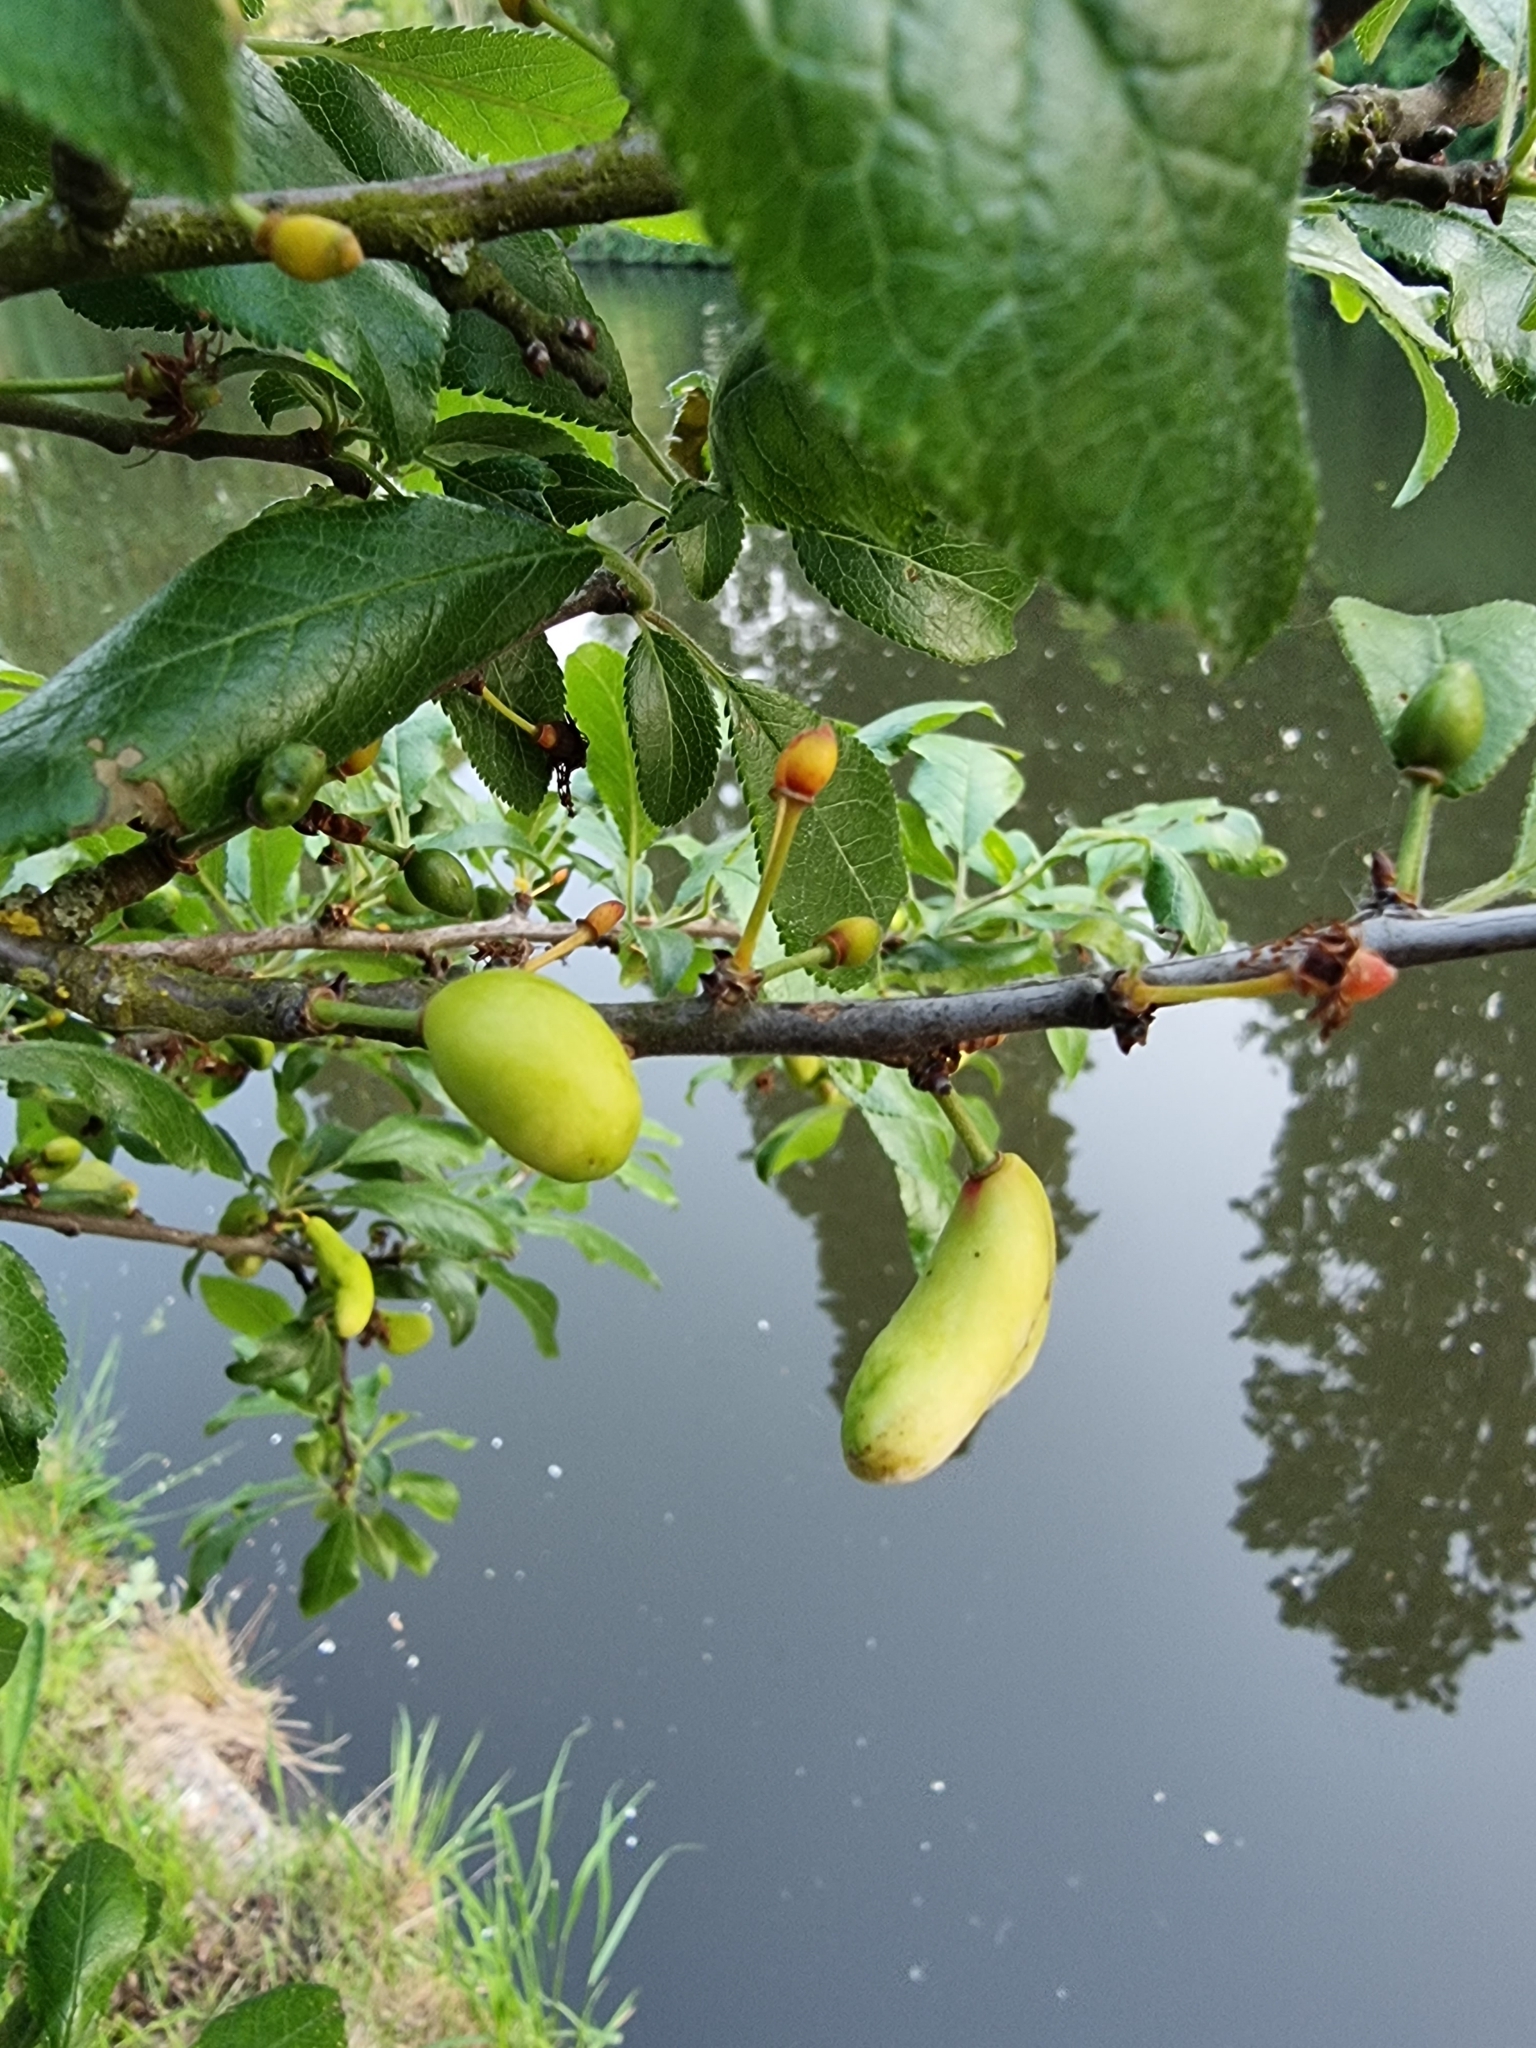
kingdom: Fungi
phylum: Ascomycota
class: Taphrinomycetes
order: Taphrinales
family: Taphrinaceae
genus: Taphrina
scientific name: Taphrina pruni
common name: Pocket plum
